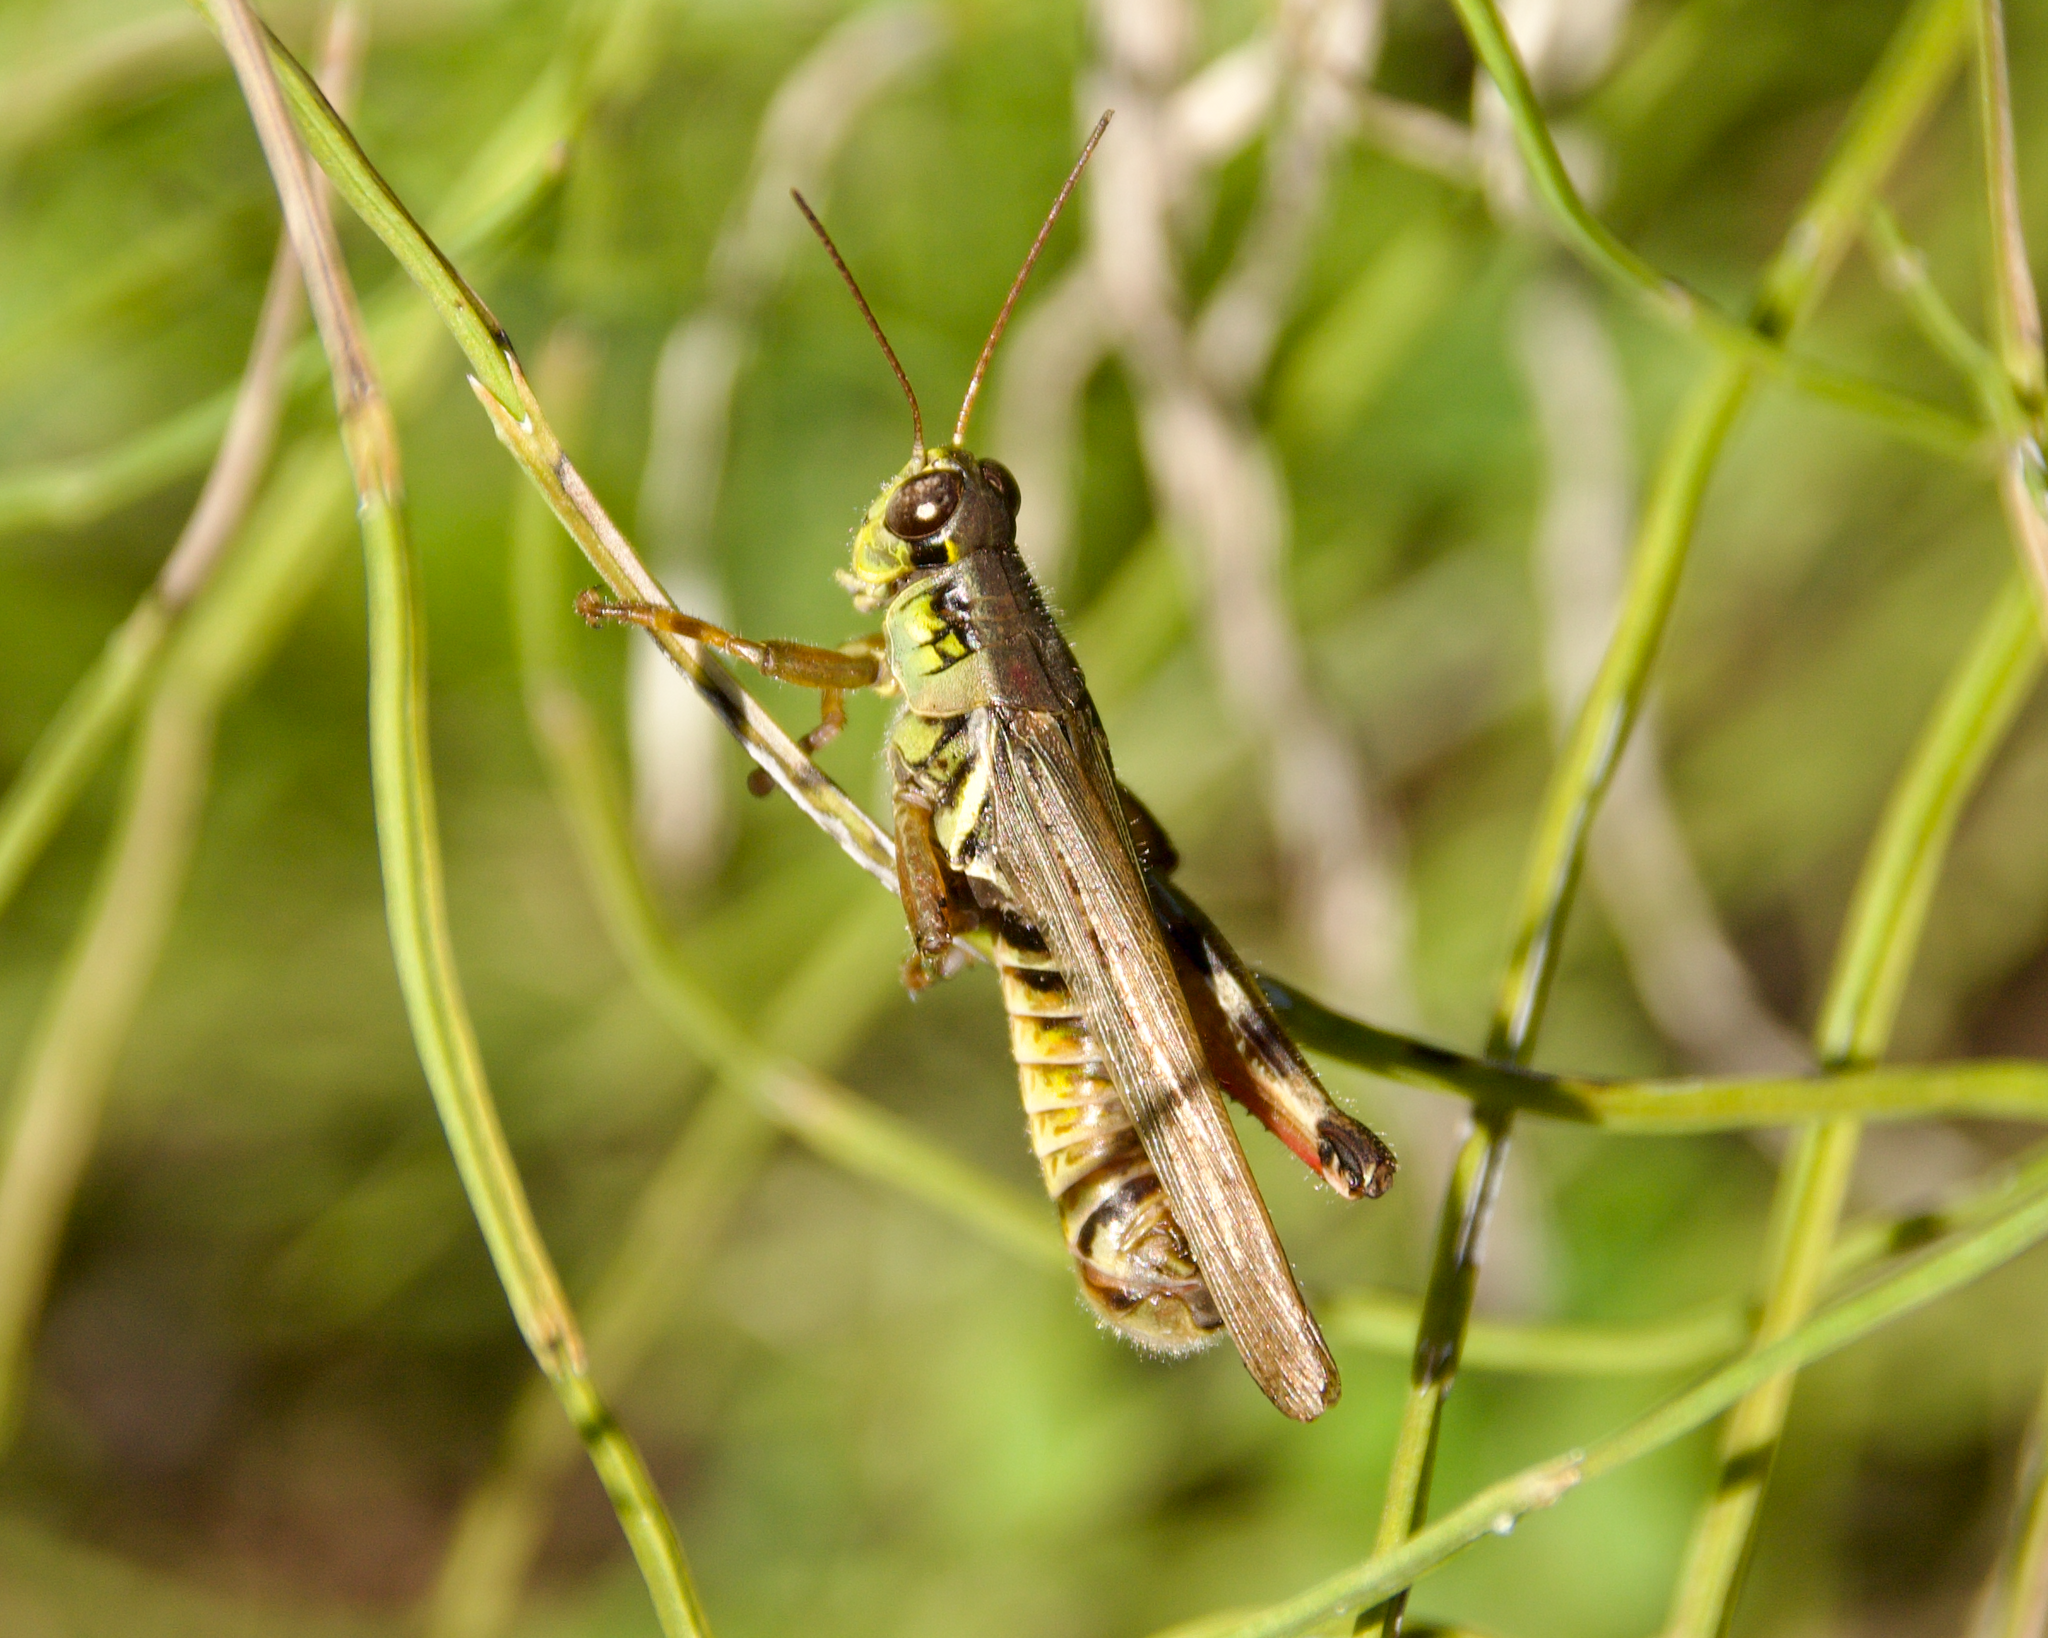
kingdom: Animalia
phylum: Arthropoda
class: Insecta
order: Orthoptera
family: Acrididae
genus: Melanoplus
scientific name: Melanoplus femurrubrum
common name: Red-legged grasshopper
